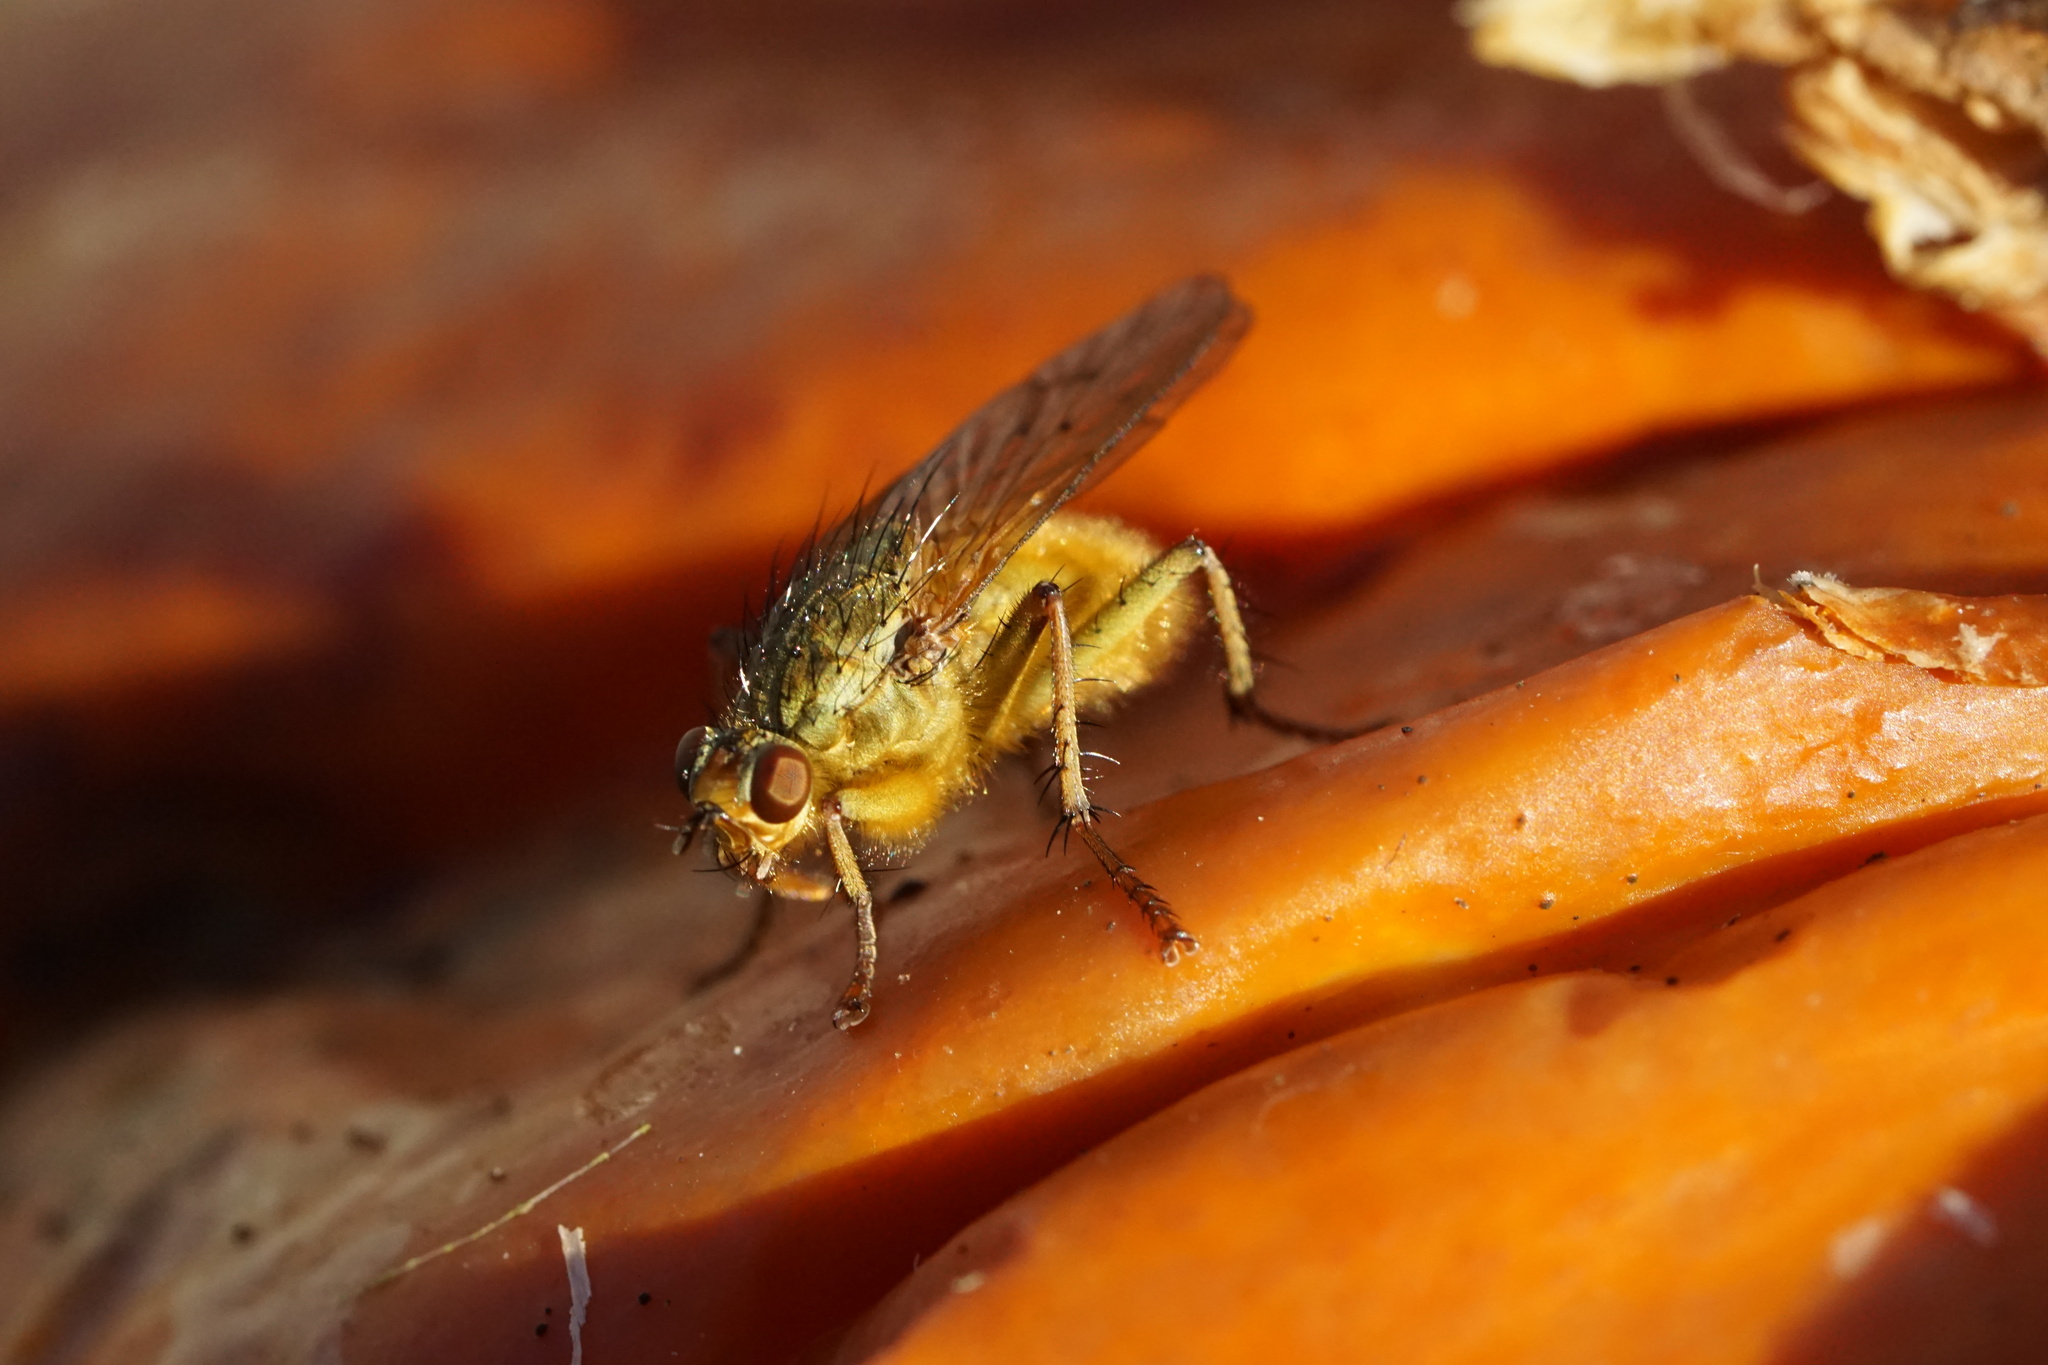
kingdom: Animalia
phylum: Arthropoda
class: Insecta
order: Diptera
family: Scathophagidae
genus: Scathophaga
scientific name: Scathophaga stercoraria
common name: Yellow dung fly
